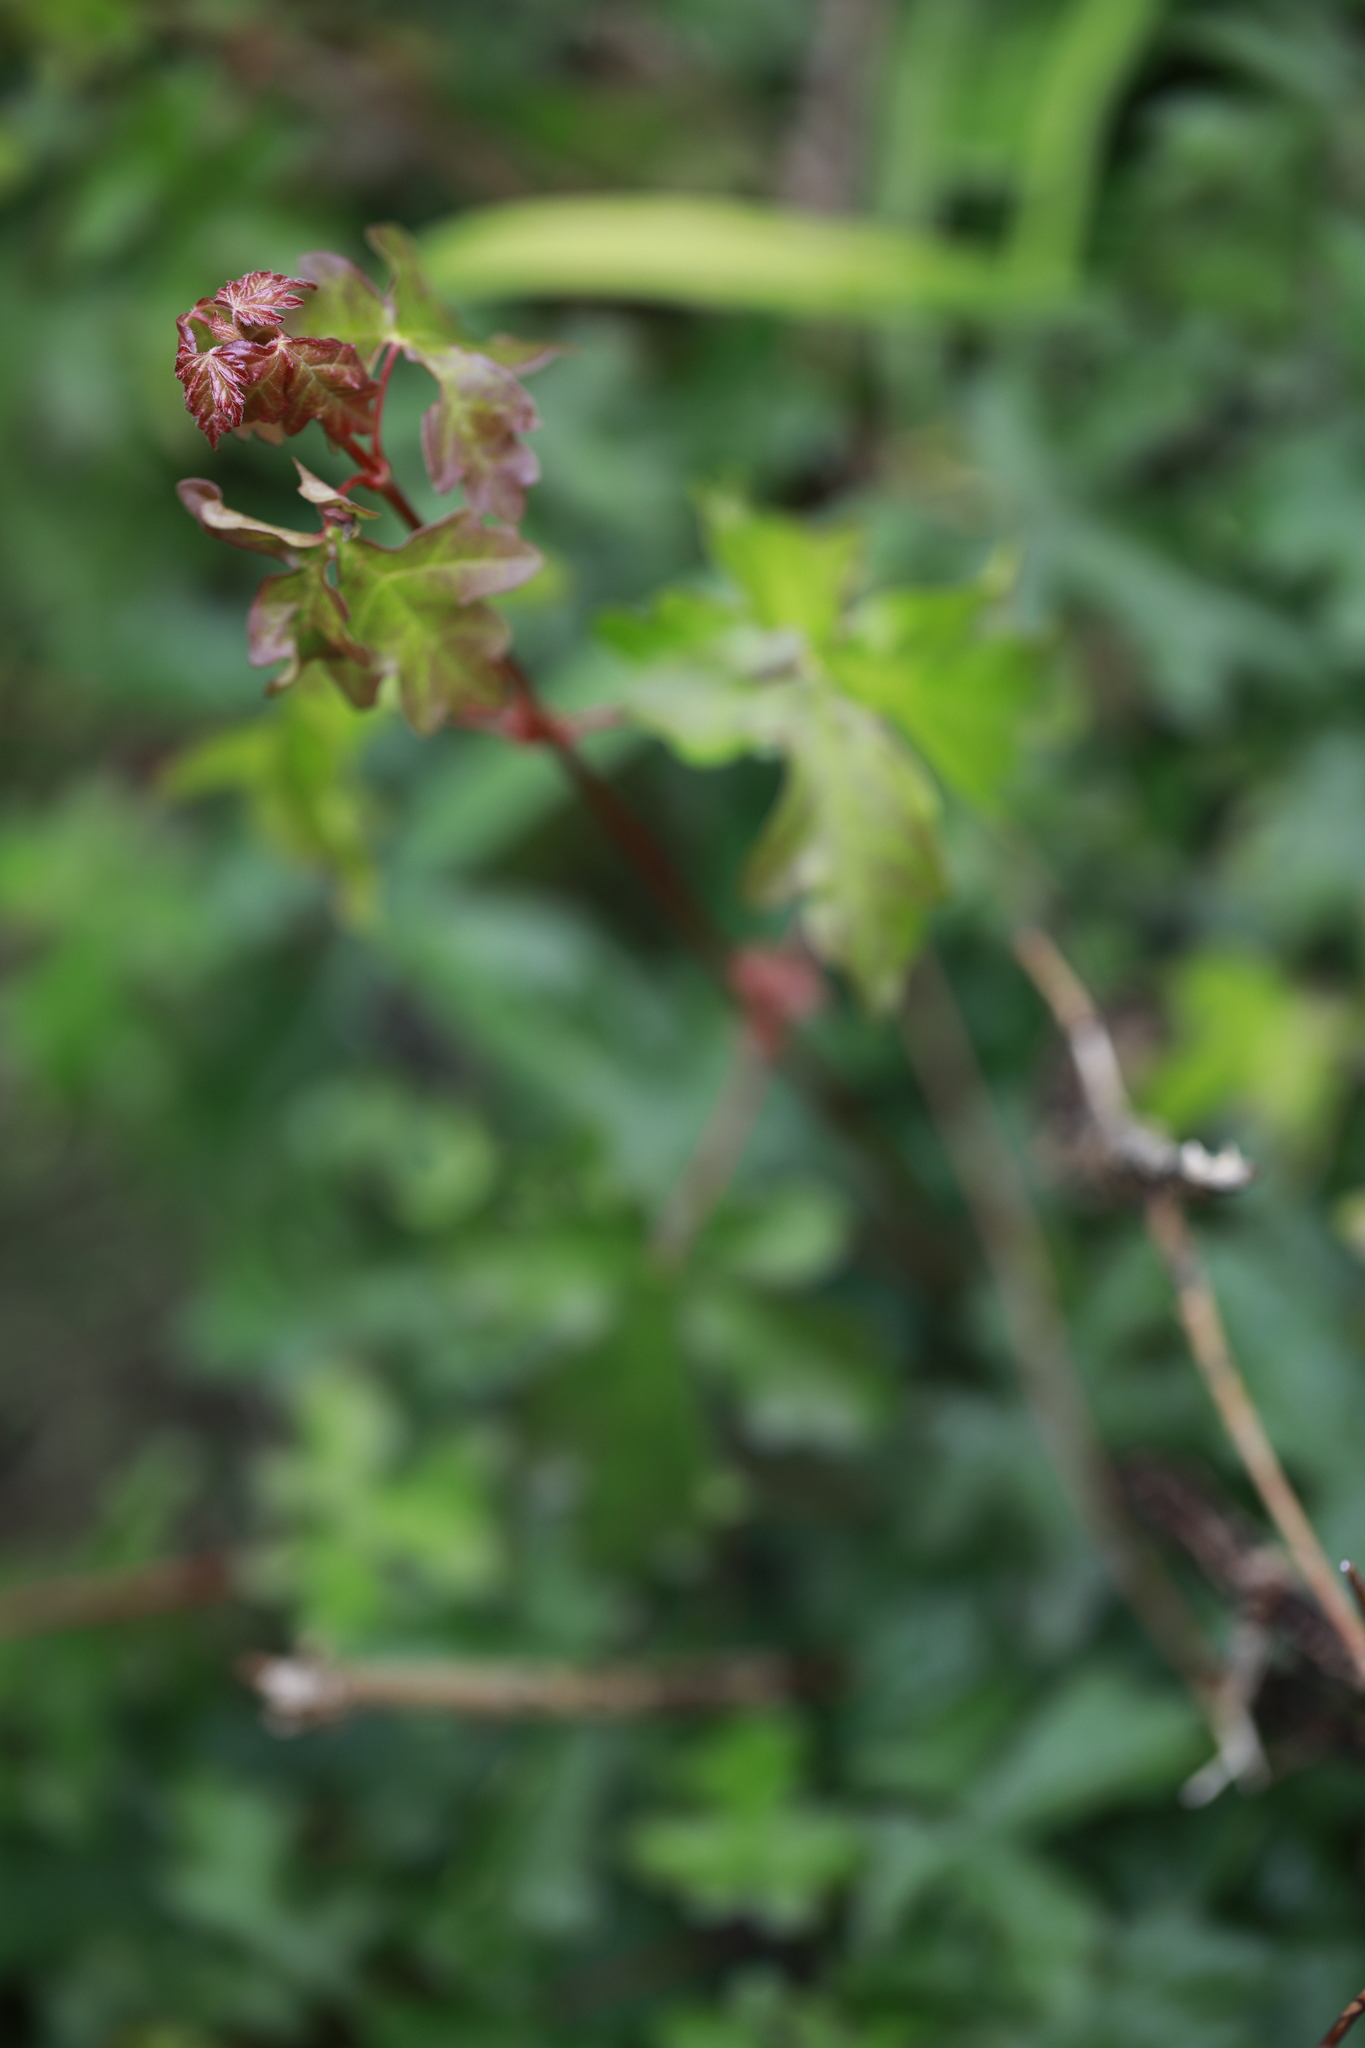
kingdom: Plantae
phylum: Tracheophyta
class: Magnoliopsida
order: Sapindales
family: Sapindaceae
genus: Acer
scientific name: Acer campestre
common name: Field maple
